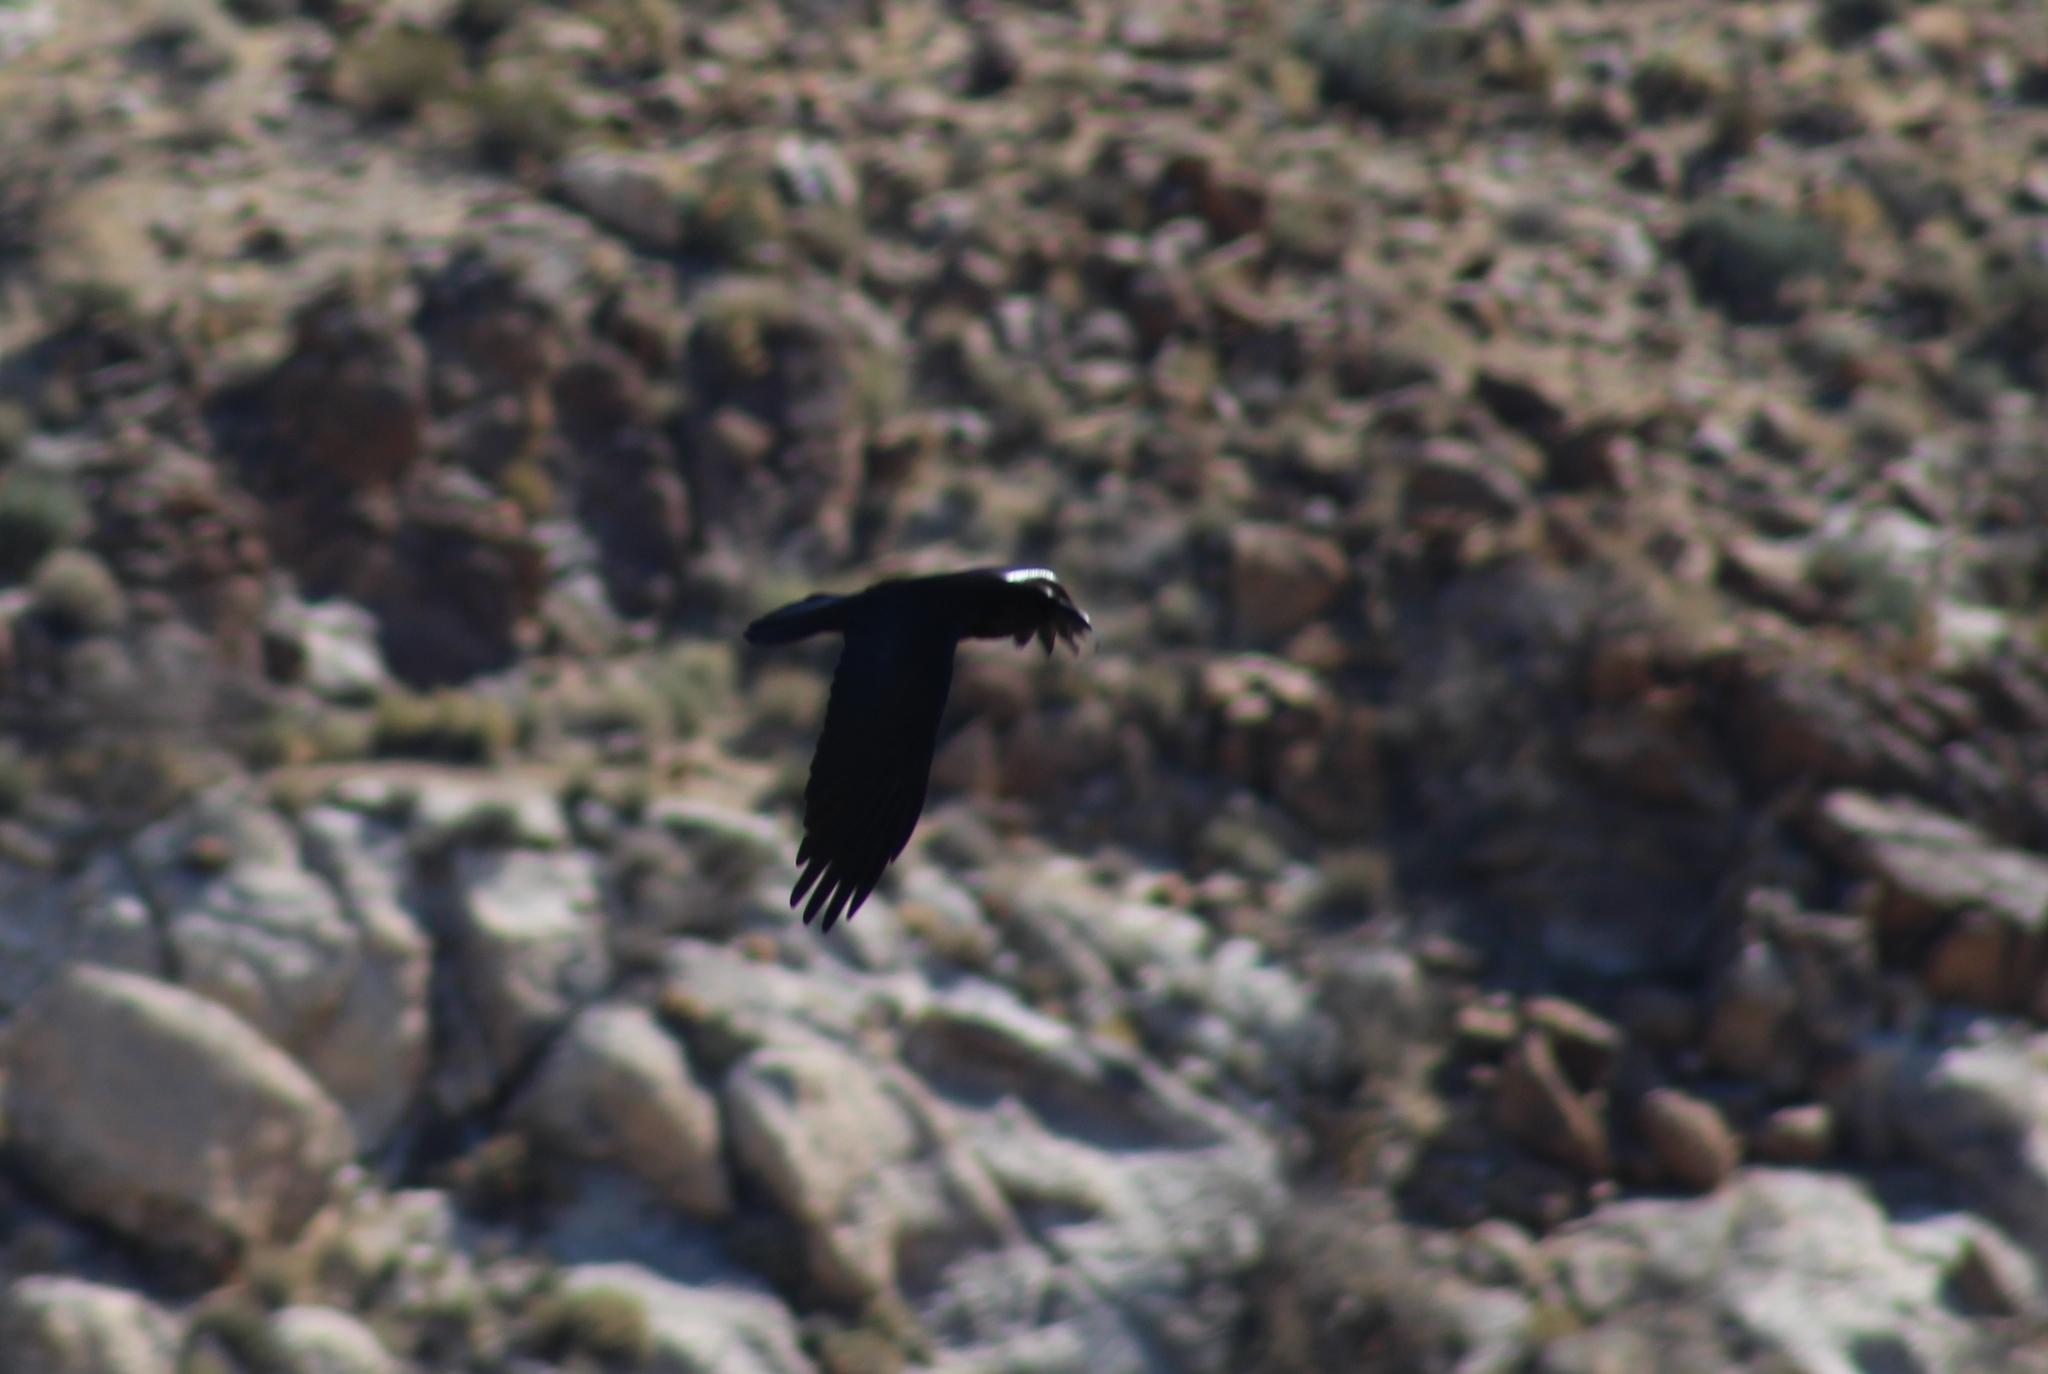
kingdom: Animalia
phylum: Chordata
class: Aves
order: Passeriformes
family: Corvidae
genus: Corvus
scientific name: Corvus corax
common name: Common raven
